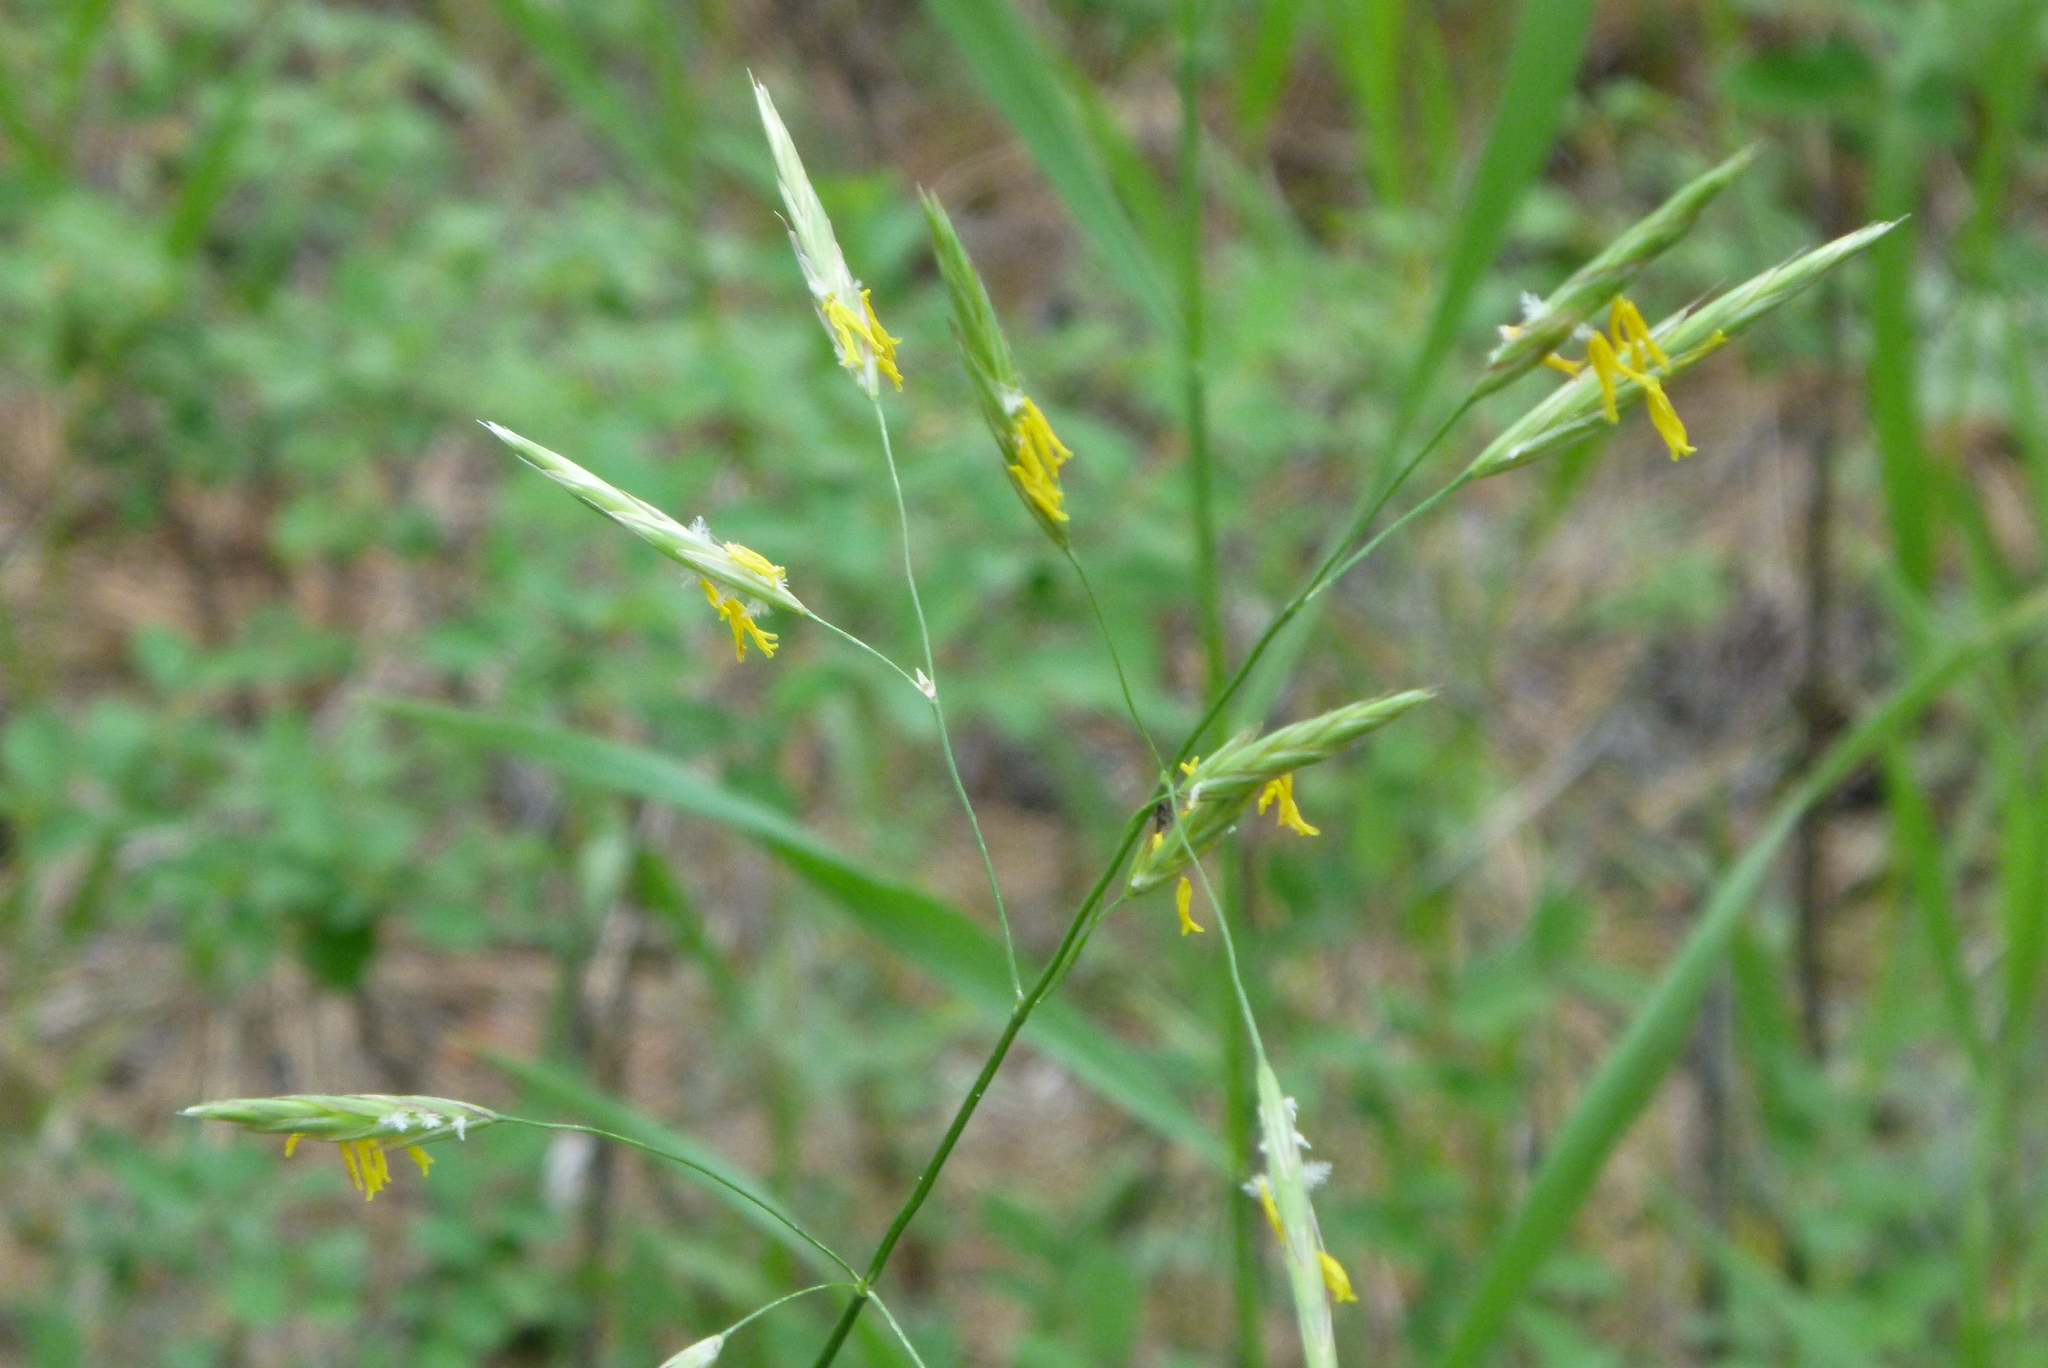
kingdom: Plantae
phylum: Tracheophyta
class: Liliopsida
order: Poales
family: Poaceae
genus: Bromus
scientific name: Bromus inermis
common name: Smooth brome
